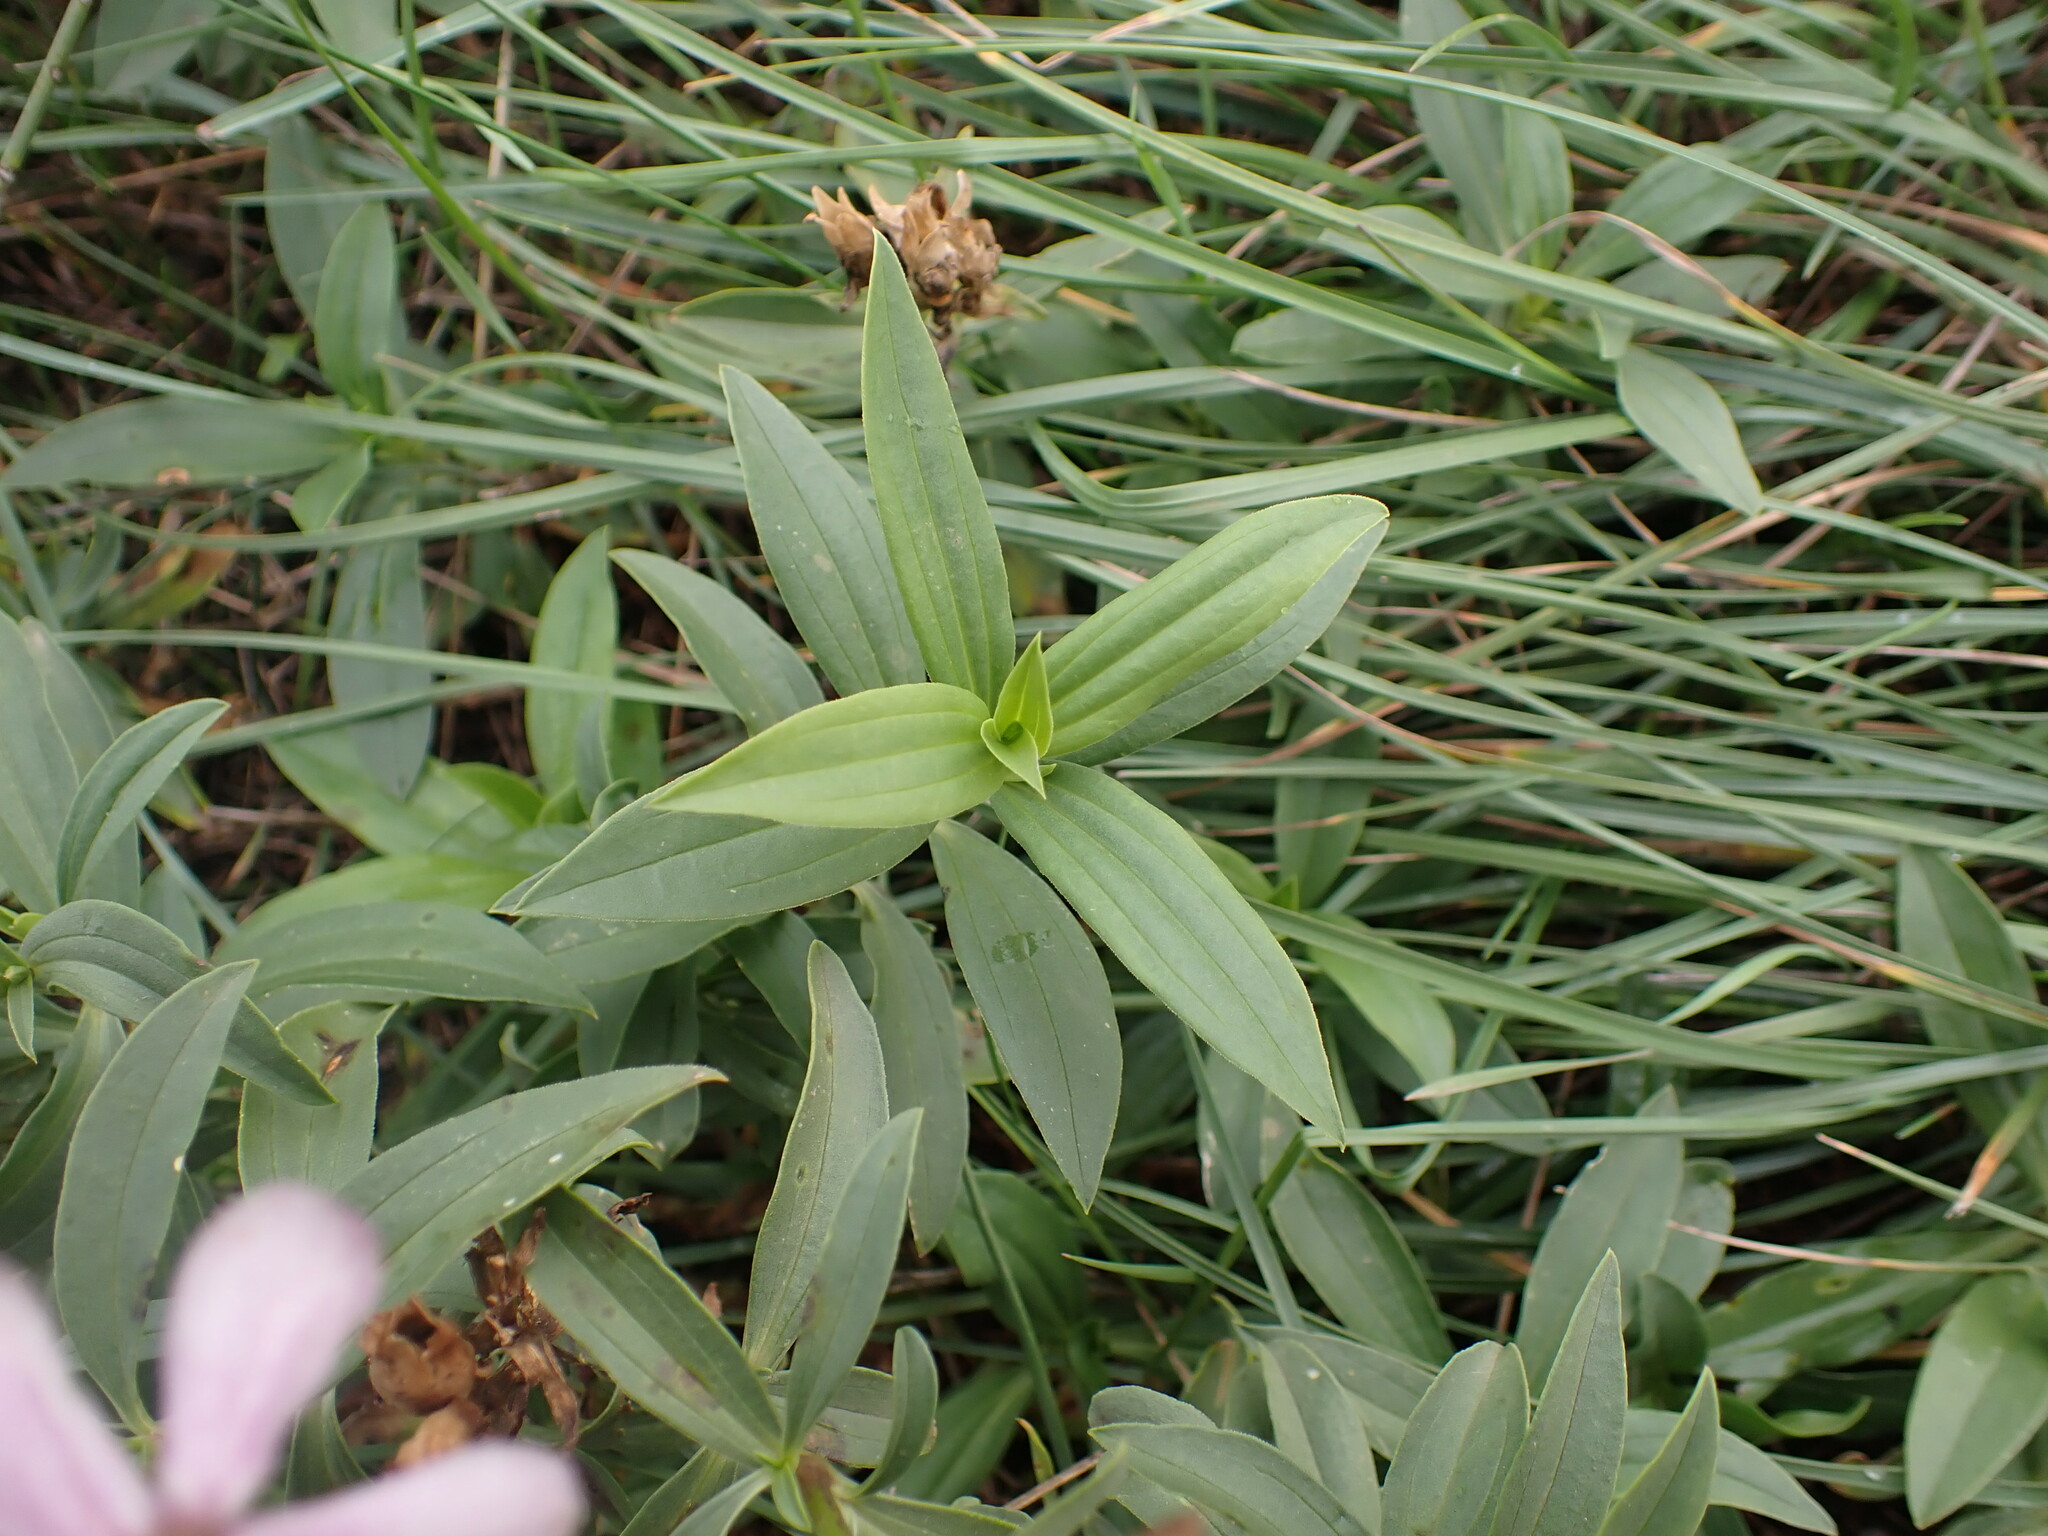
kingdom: Plantae
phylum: Tracheophyta
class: Magnoliopsida
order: Caryophyllales
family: Caryophyllaceae
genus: Saponaria
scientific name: Saponaria officinalis
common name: Soapwort
